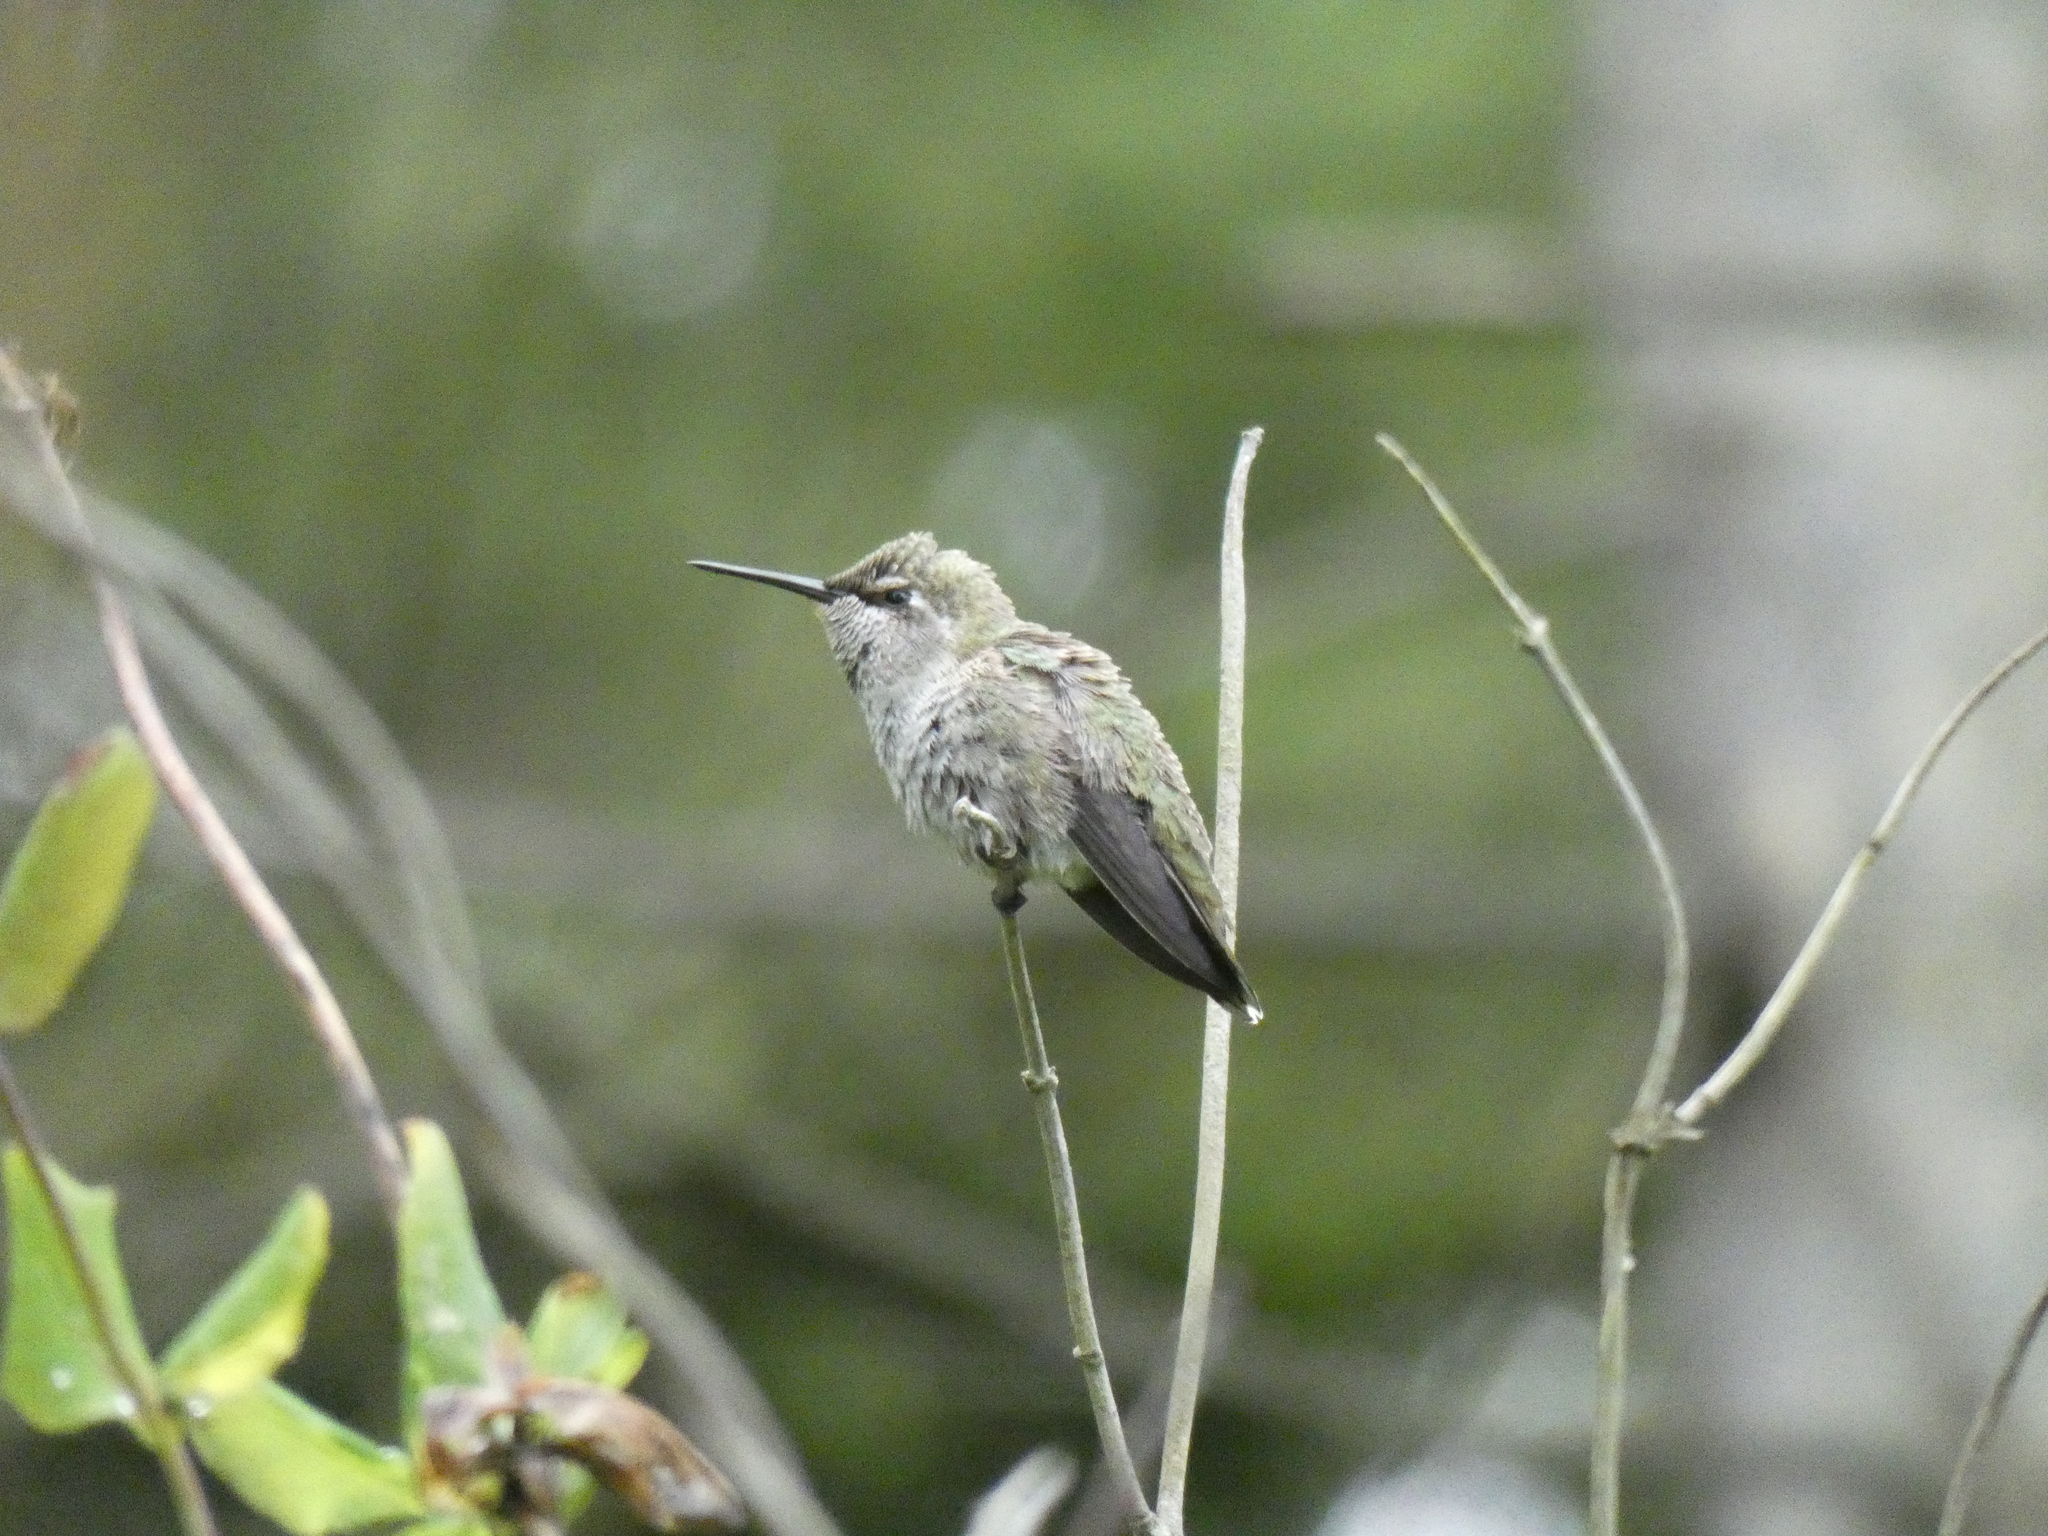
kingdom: Animalia
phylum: Chordata
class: Aves
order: Apodiformes
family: Trochilidae
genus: Calypte
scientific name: Calypte anna
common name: Anna's hummingbird
